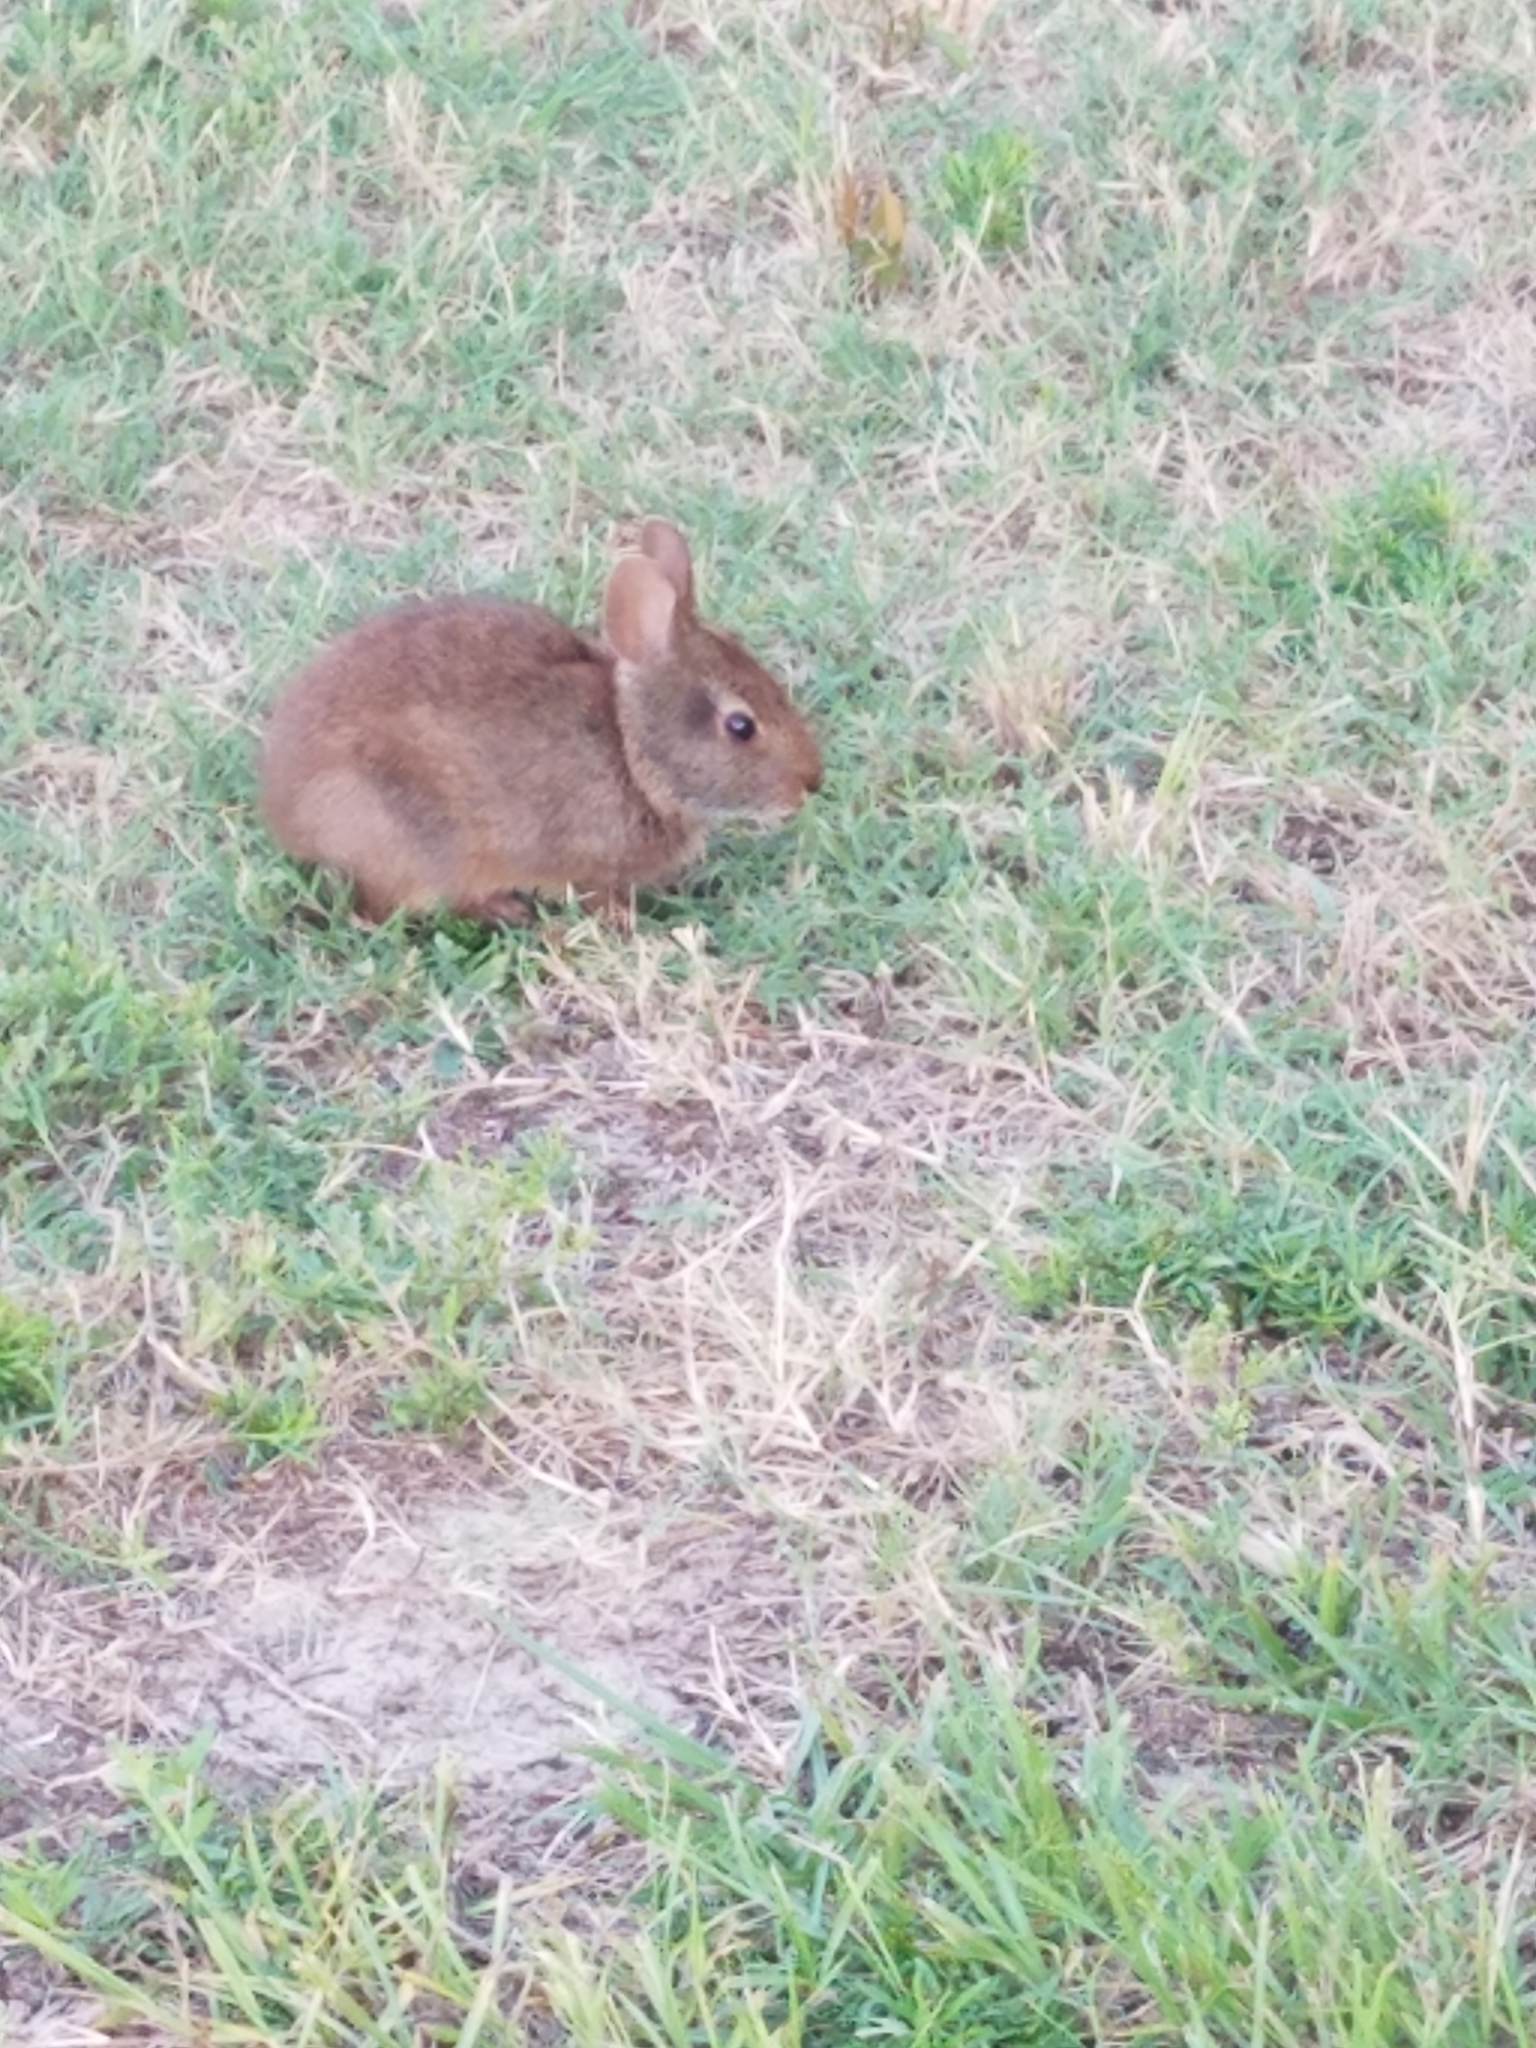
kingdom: Animalia
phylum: Chordata
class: Mammalia
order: Lagomorpha
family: Leporidae
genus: Sylvilagus
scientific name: Sylvilagus palustris
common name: Marsh rabbit
